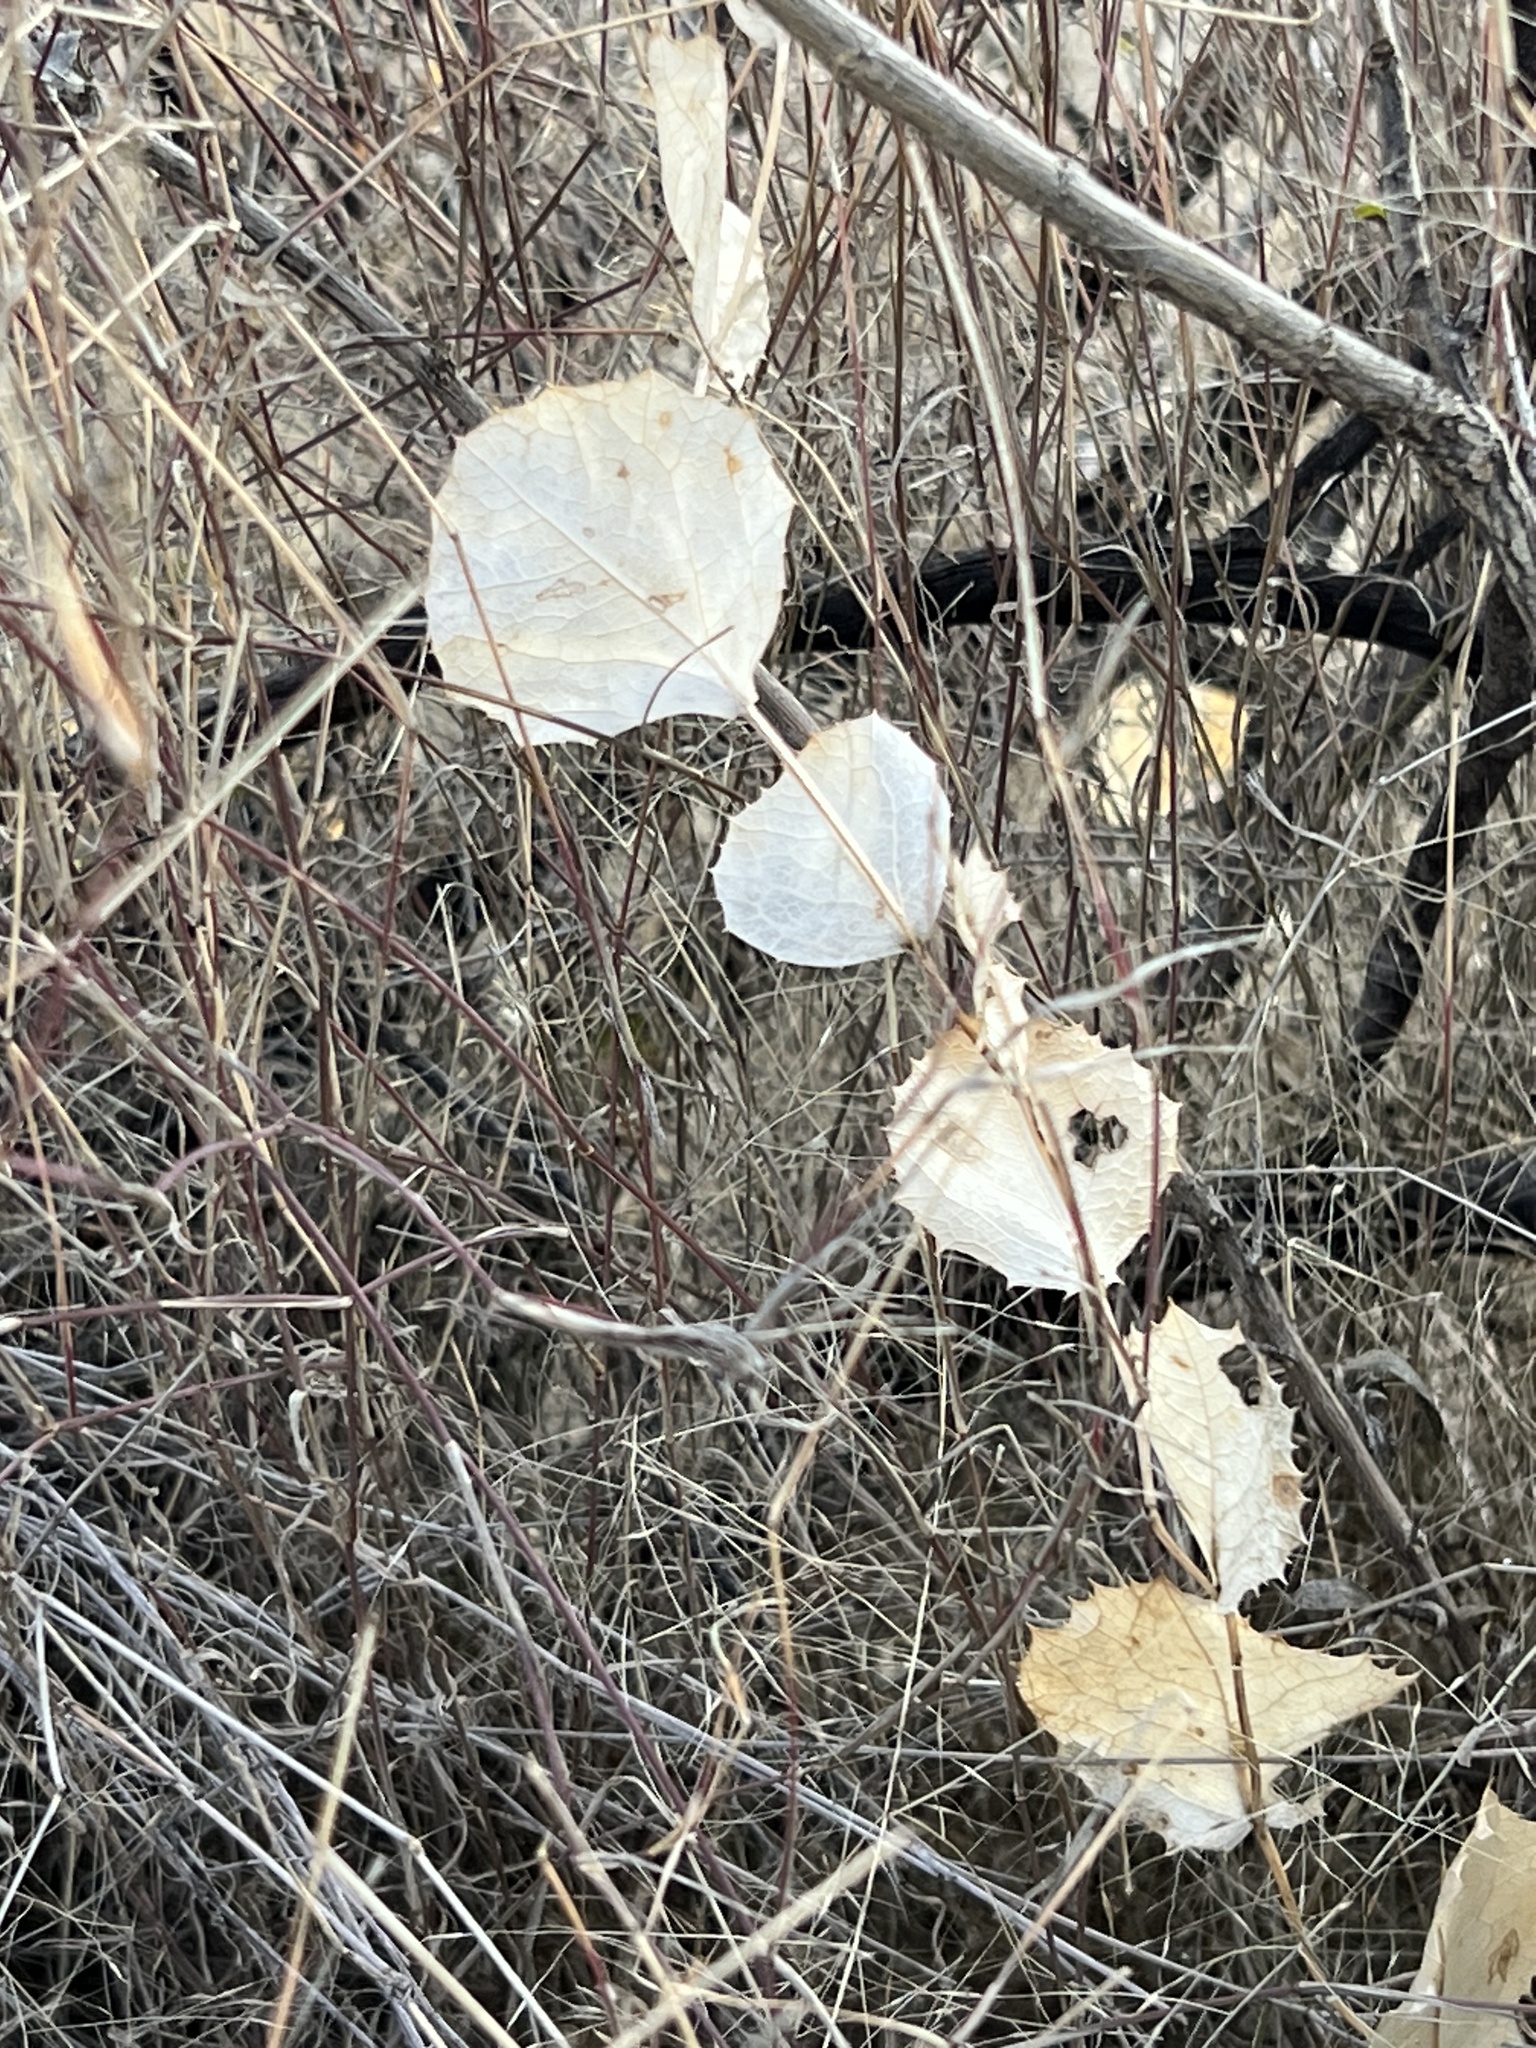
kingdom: Plantae
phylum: Tracheophyta
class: Magnoliopsida
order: Asterales
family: Asteraceae
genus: Acourtia
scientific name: Acourtia nana
